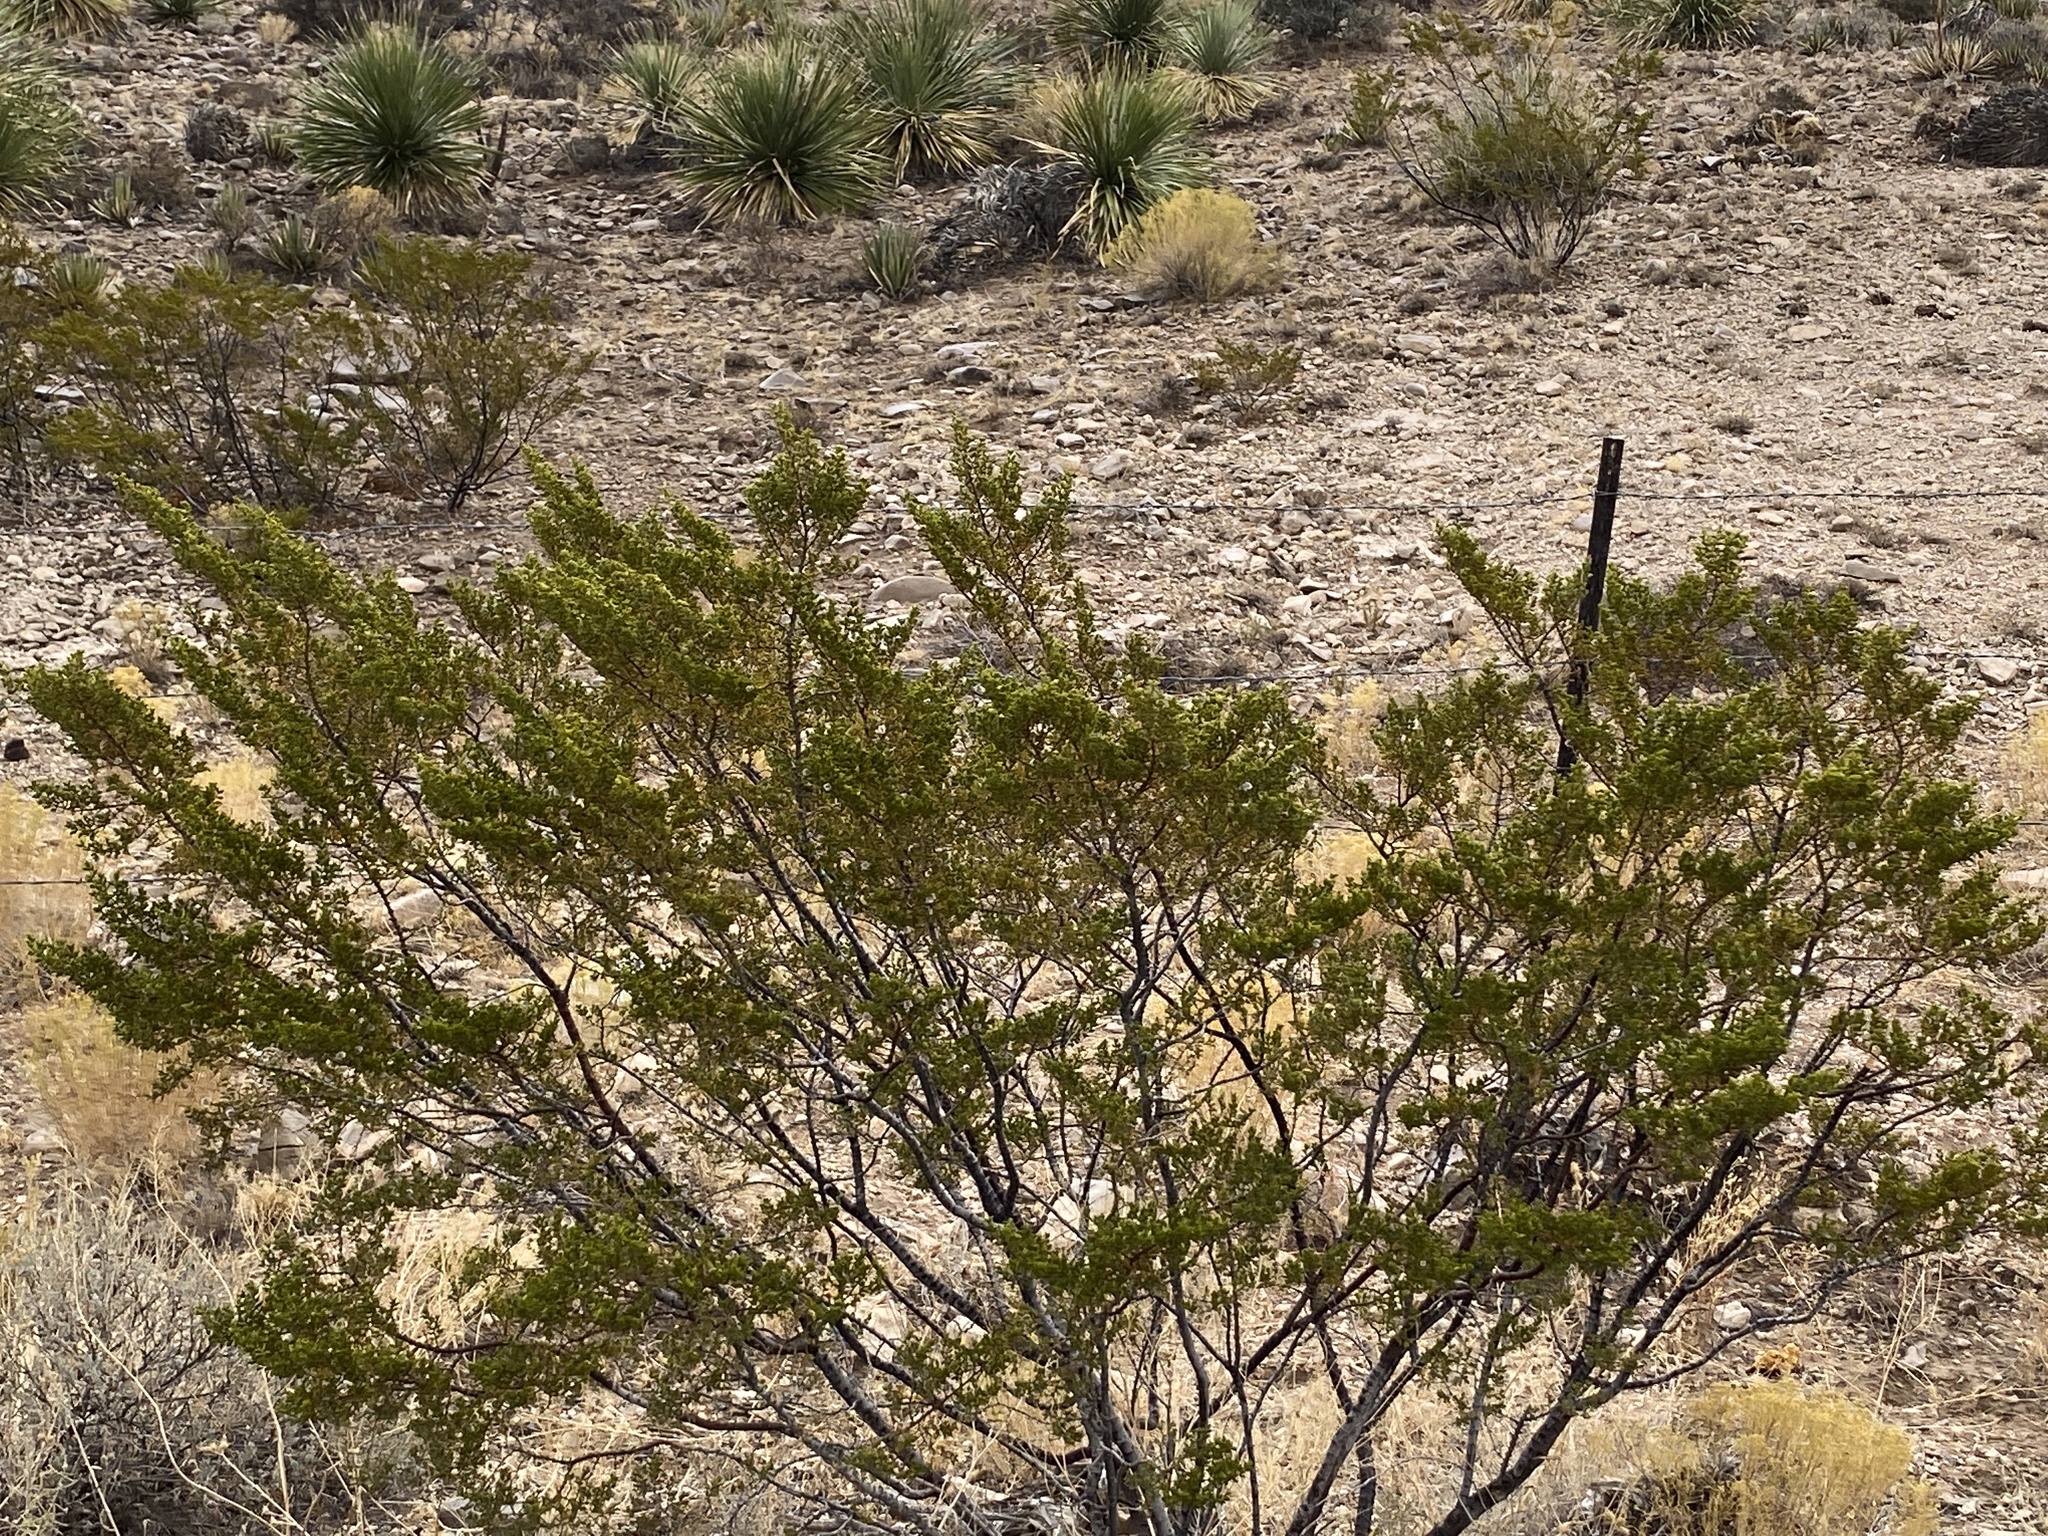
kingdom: Plantae
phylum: Tracheophyta
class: Magnoliopsida
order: Zygophyllales
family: Zygophyllaceae
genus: Larrea
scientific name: Larrea tridentata
